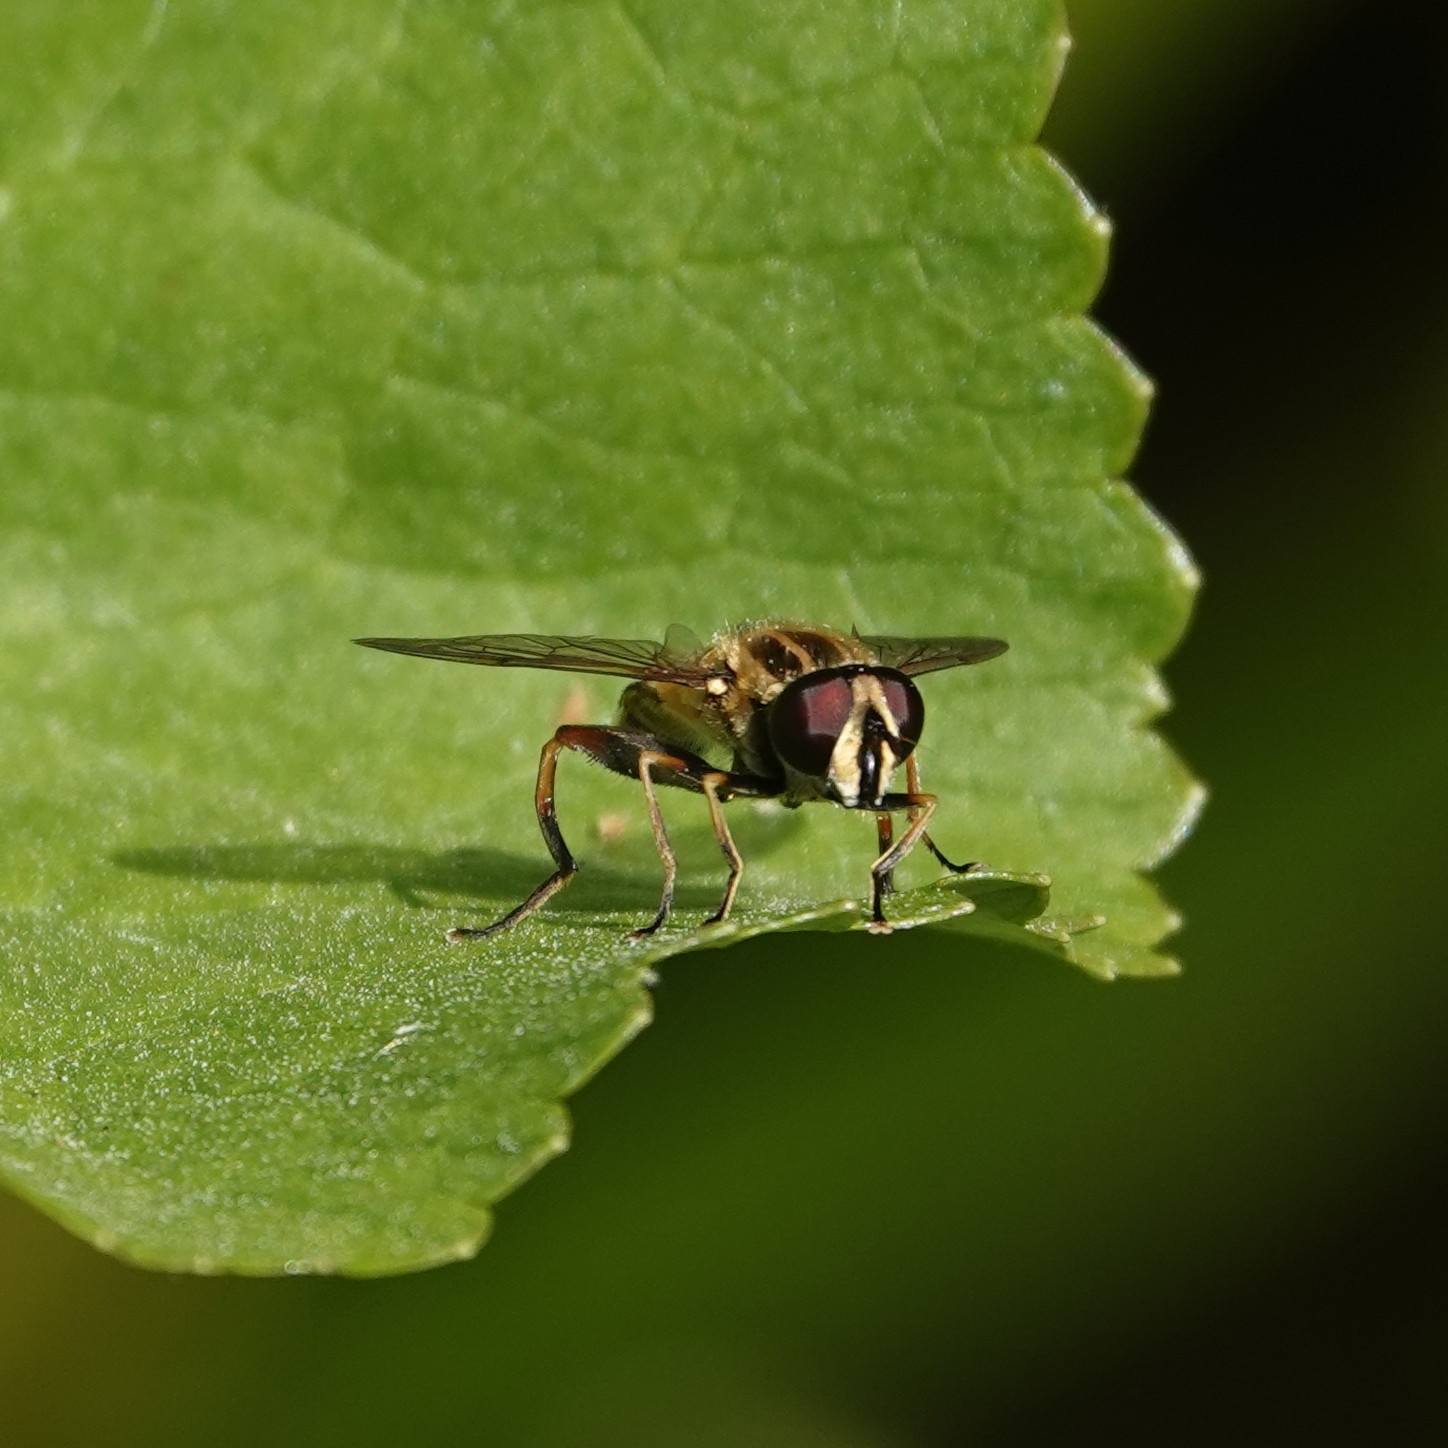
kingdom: Animalia
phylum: Arthropoda
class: Insecta
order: Diptera
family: Syrphidae
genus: Helophilus
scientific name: Helophilus pendulus
